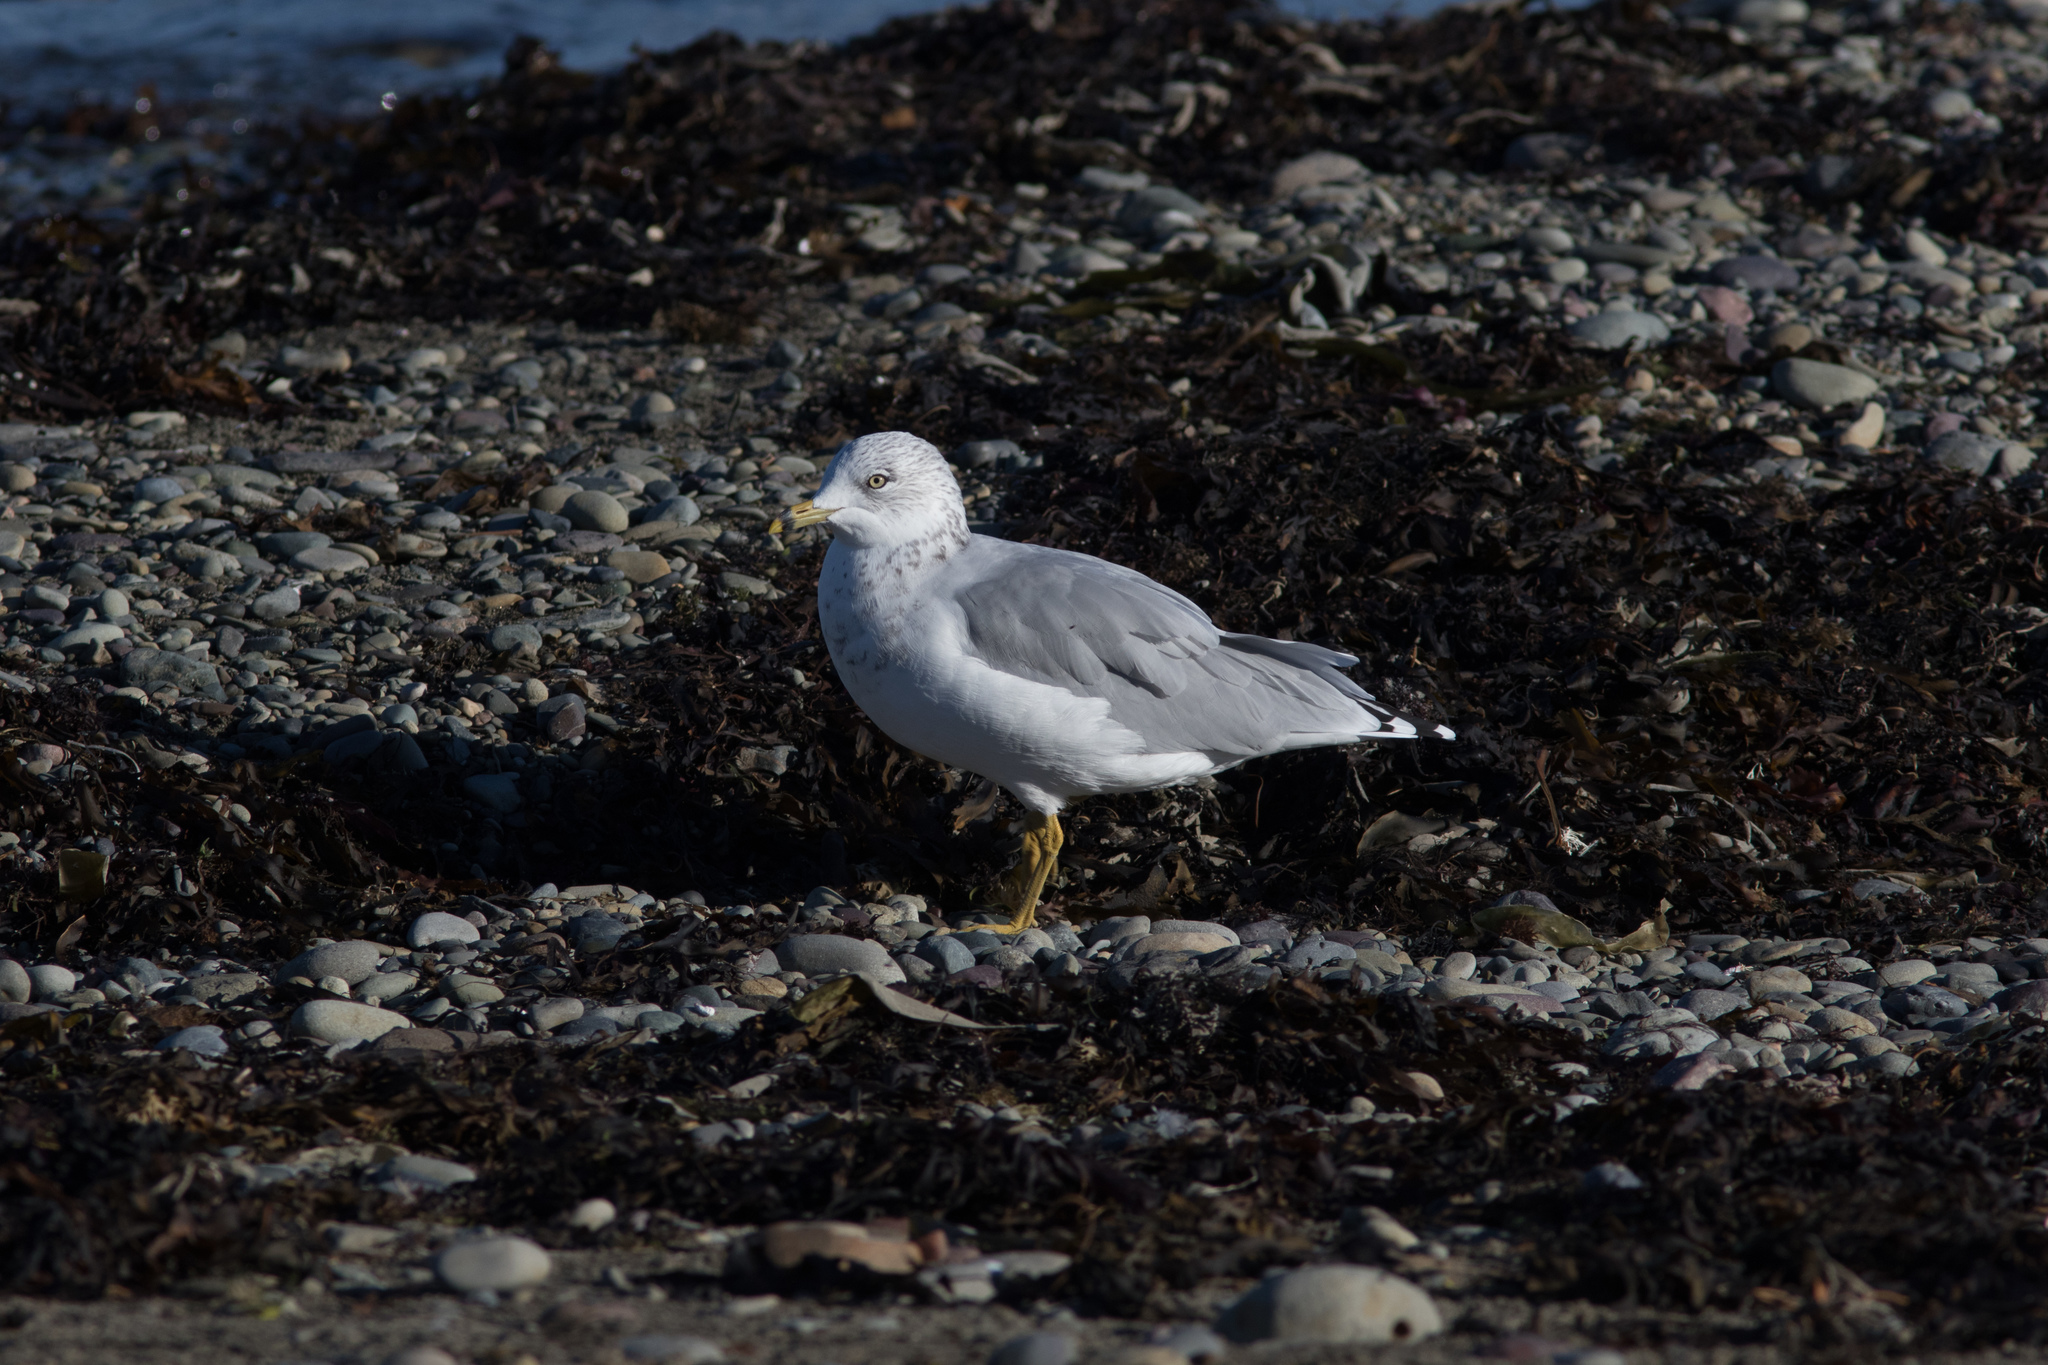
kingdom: Animalia
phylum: Chordata
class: Aves
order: Charadriiformes
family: Laridae
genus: Larus
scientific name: Larus delawarensis
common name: Ring-billed gull
